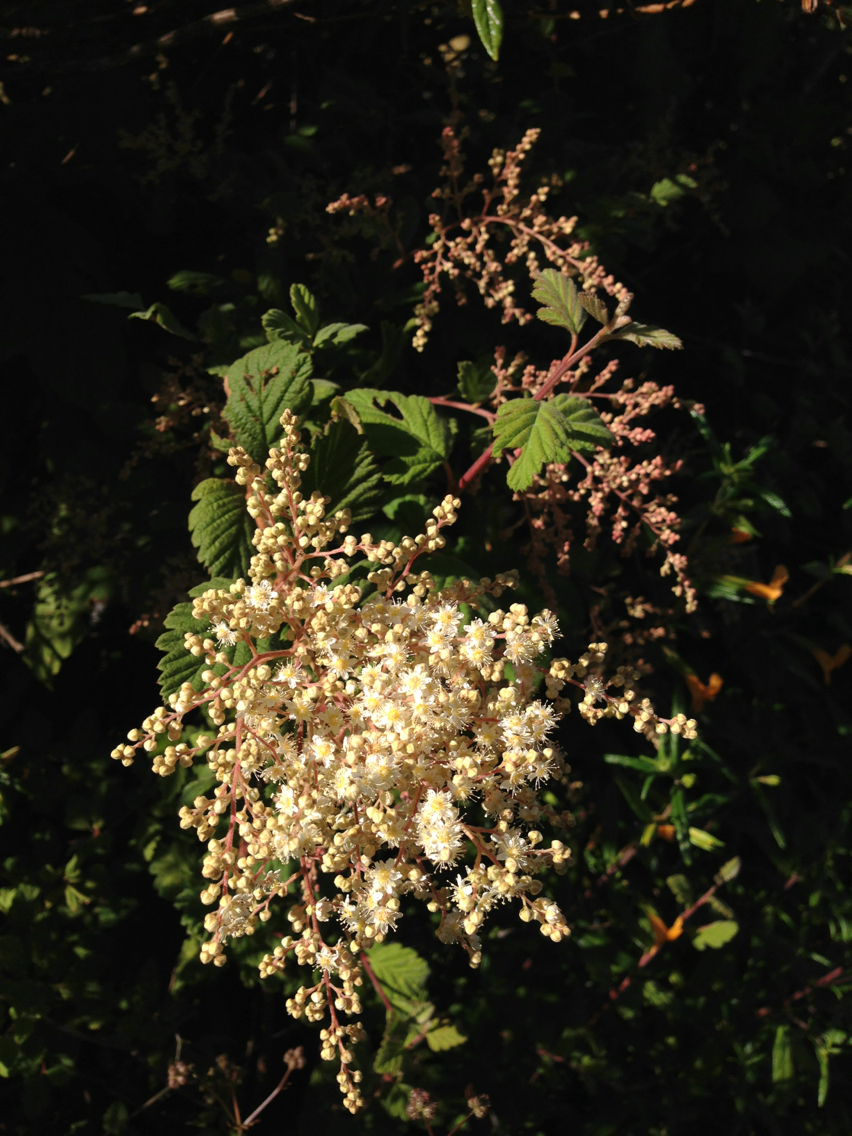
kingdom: Plantae
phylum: Tracheophyta
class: Magnoliopsida
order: Rosales
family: Rosaceae
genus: Holodiscus
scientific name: Holodiscus discolor
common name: Oceanspray
